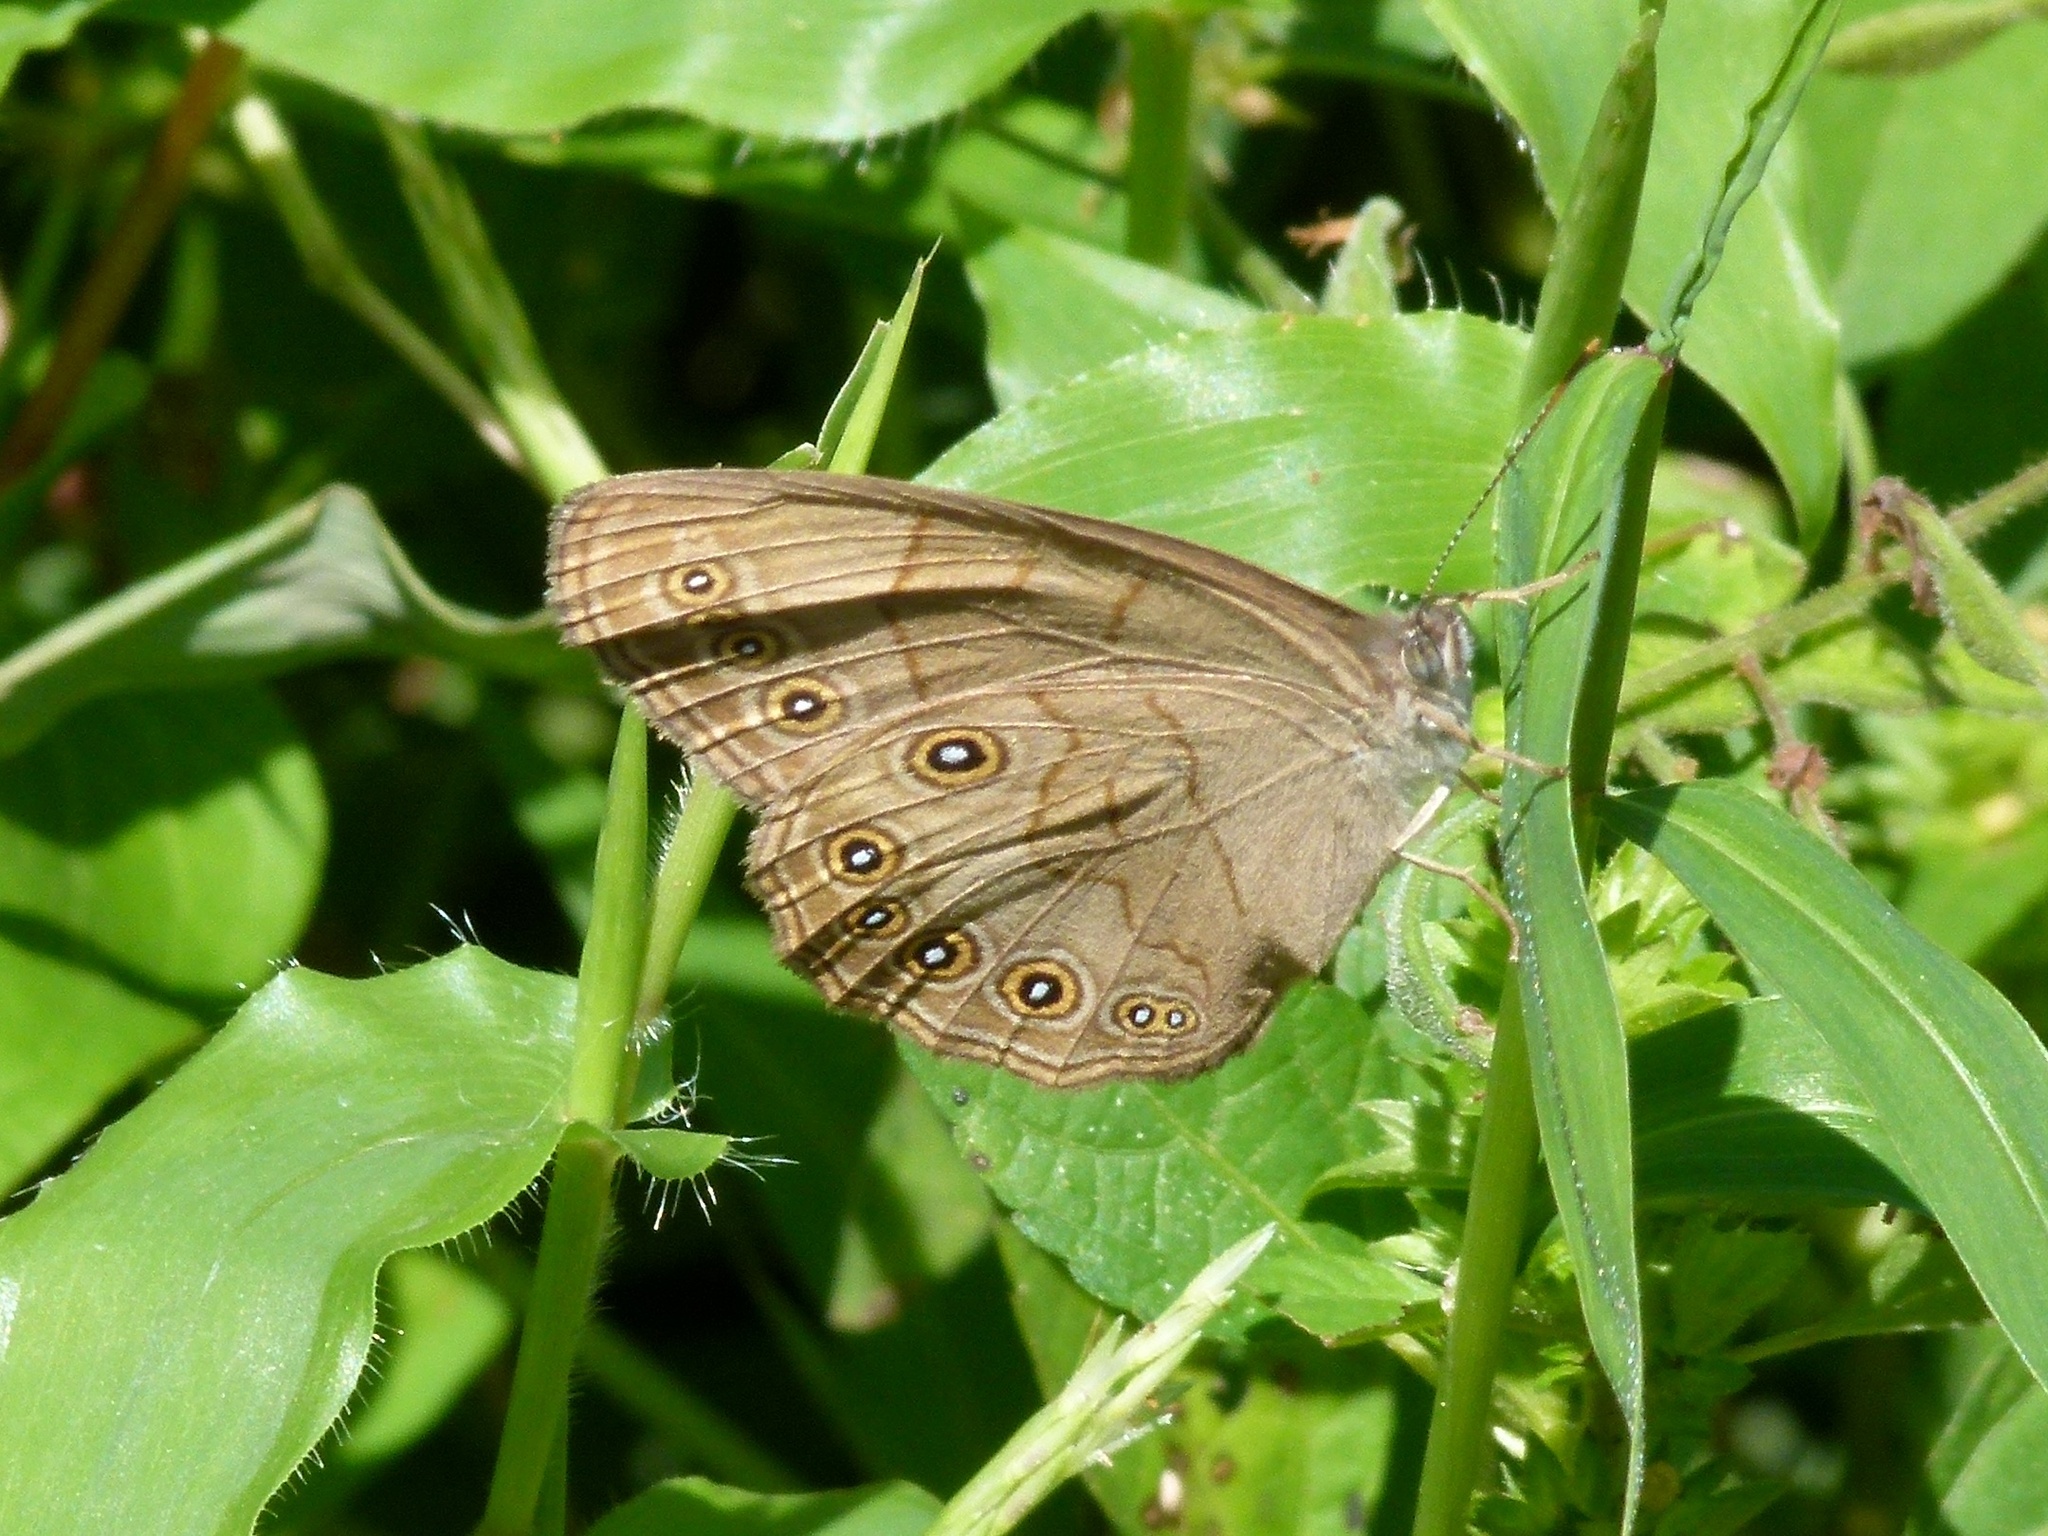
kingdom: Animalia
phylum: Arthropoda
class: Insecta
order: Lepidoptera
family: Nymphalidae
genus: Lethe
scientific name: Lethe eurydice
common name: Eyed brown
